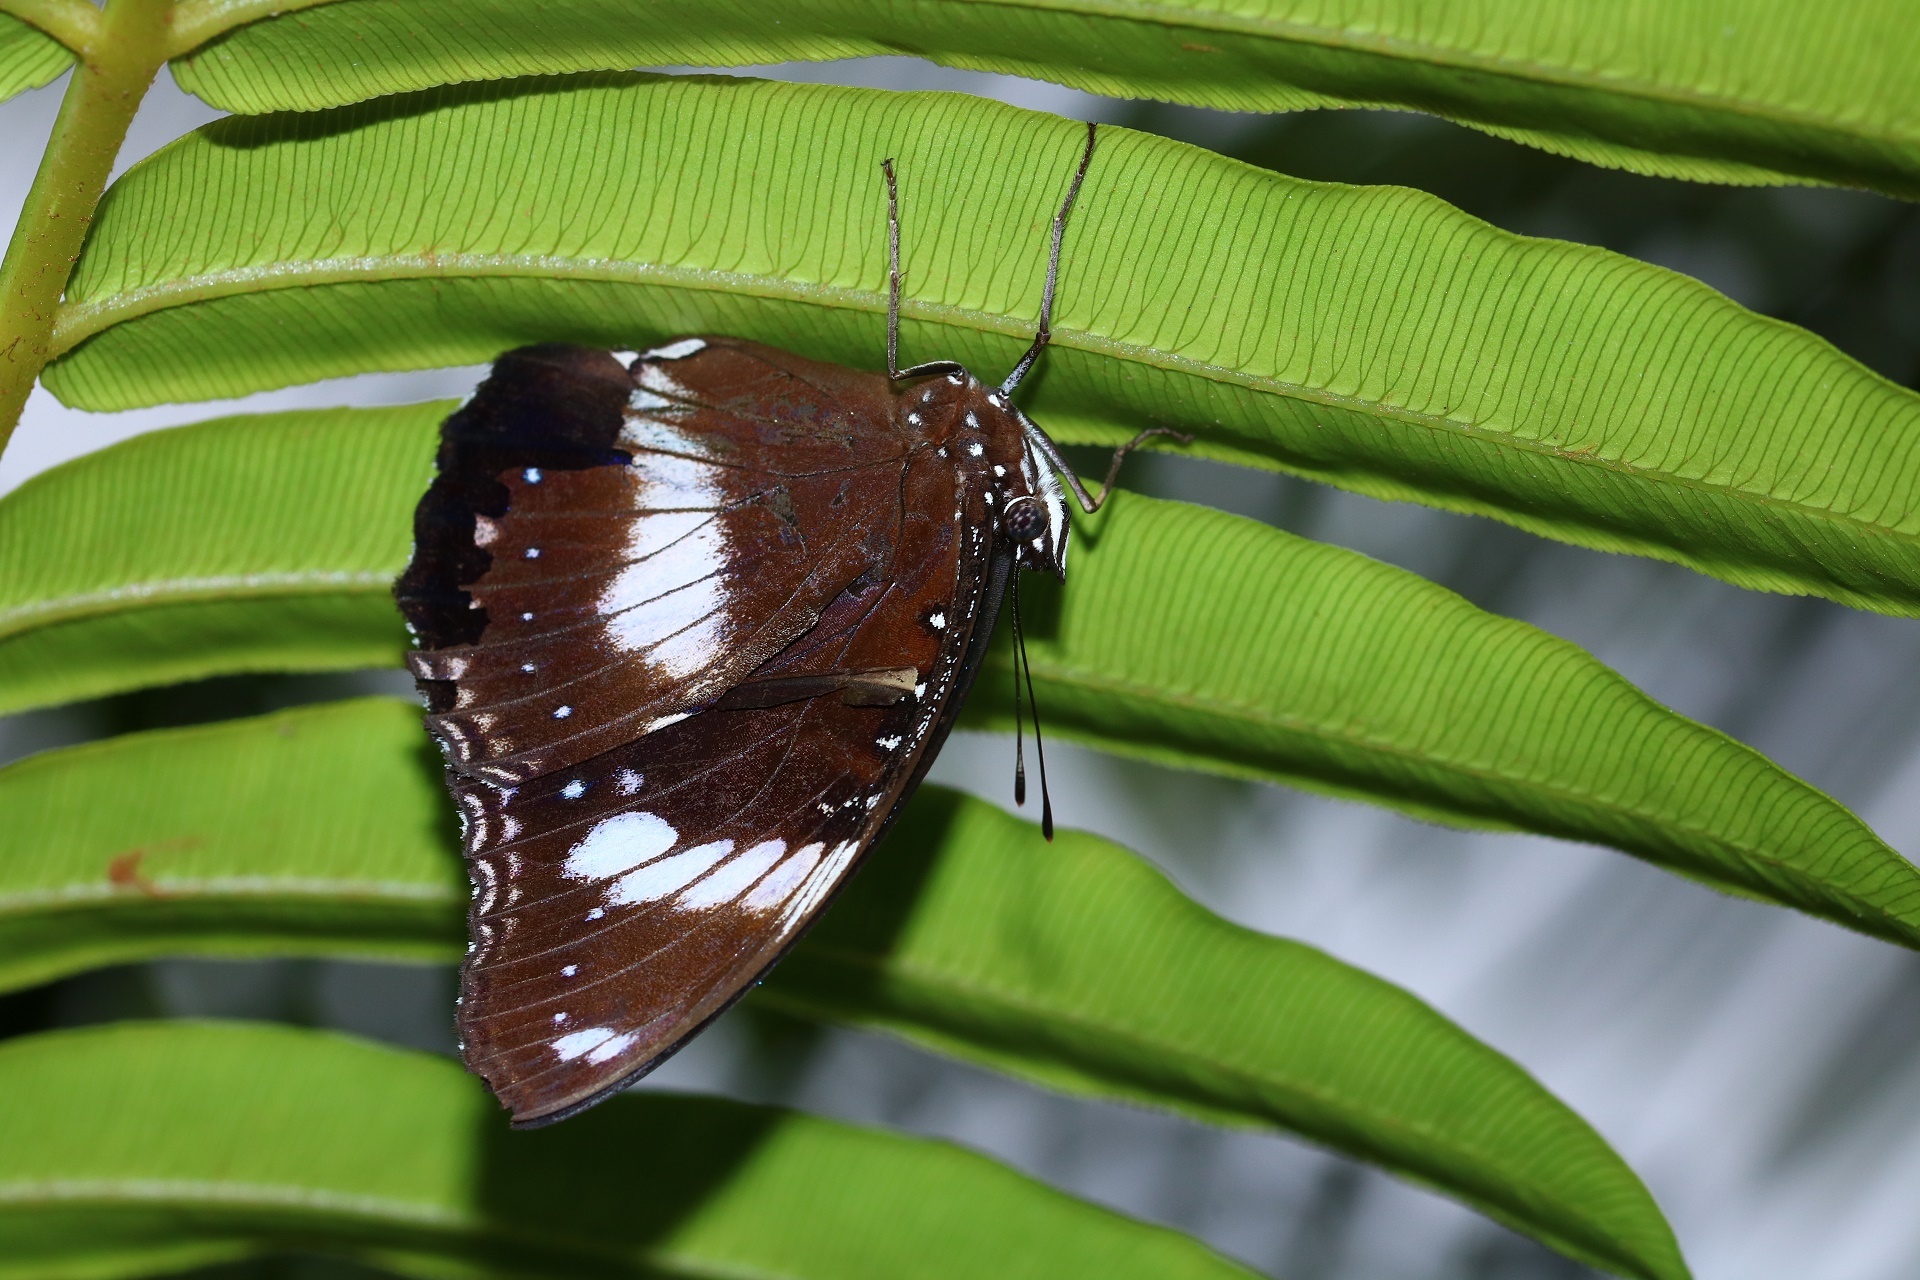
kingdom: Animalia
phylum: Arthropoda
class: Insecta
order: Lepidoptera
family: Nymphalidae
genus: Hypolimnas
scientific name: Hypolimnas bolina
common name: Great eggfly
